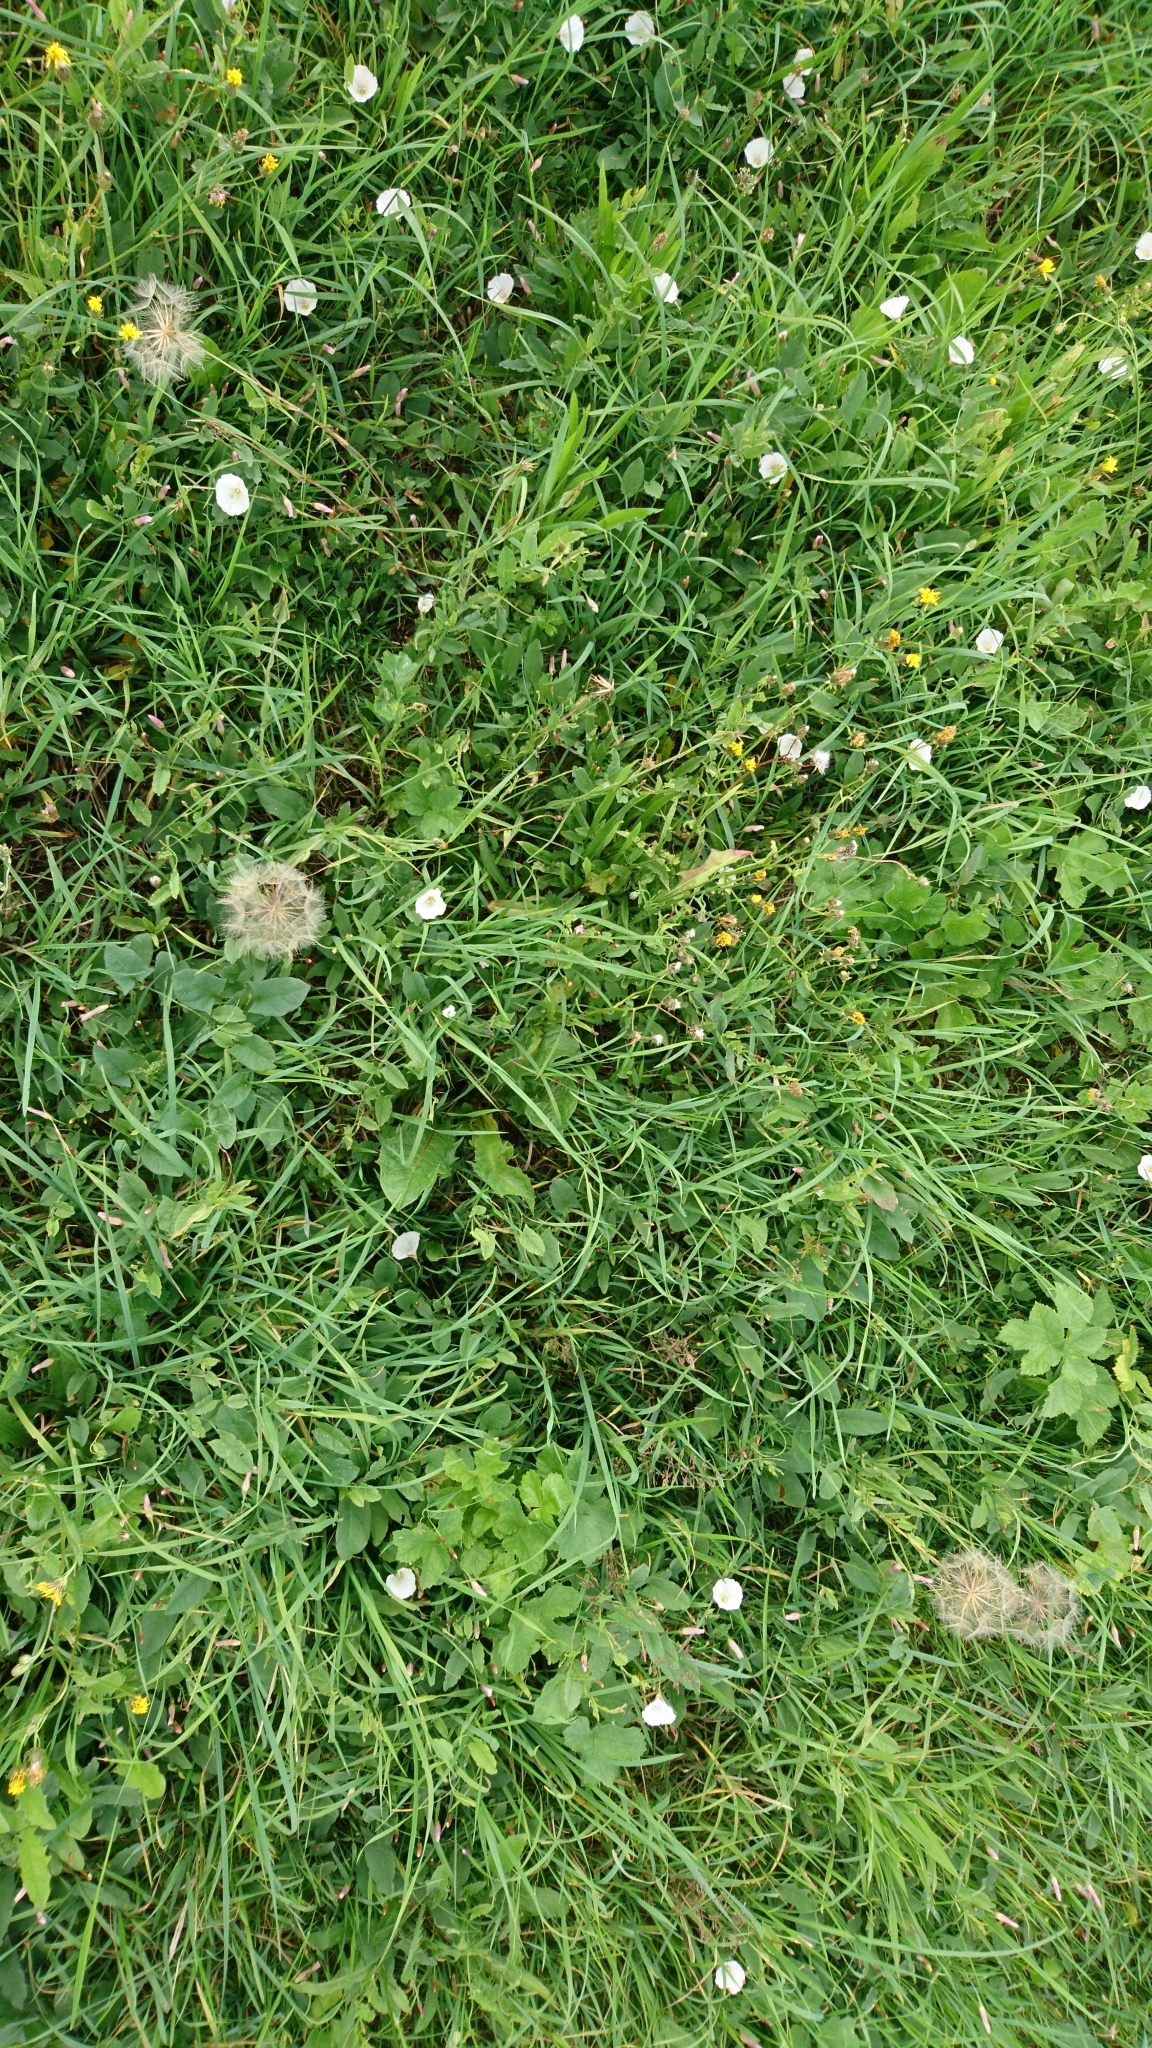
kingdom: Plantae
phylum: Tracheophyta
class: Magnoliopsida
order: Asterales
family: Asteraceae
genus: Tragopogon
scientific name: Tragopogon pratensis
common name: Goat's-beard
